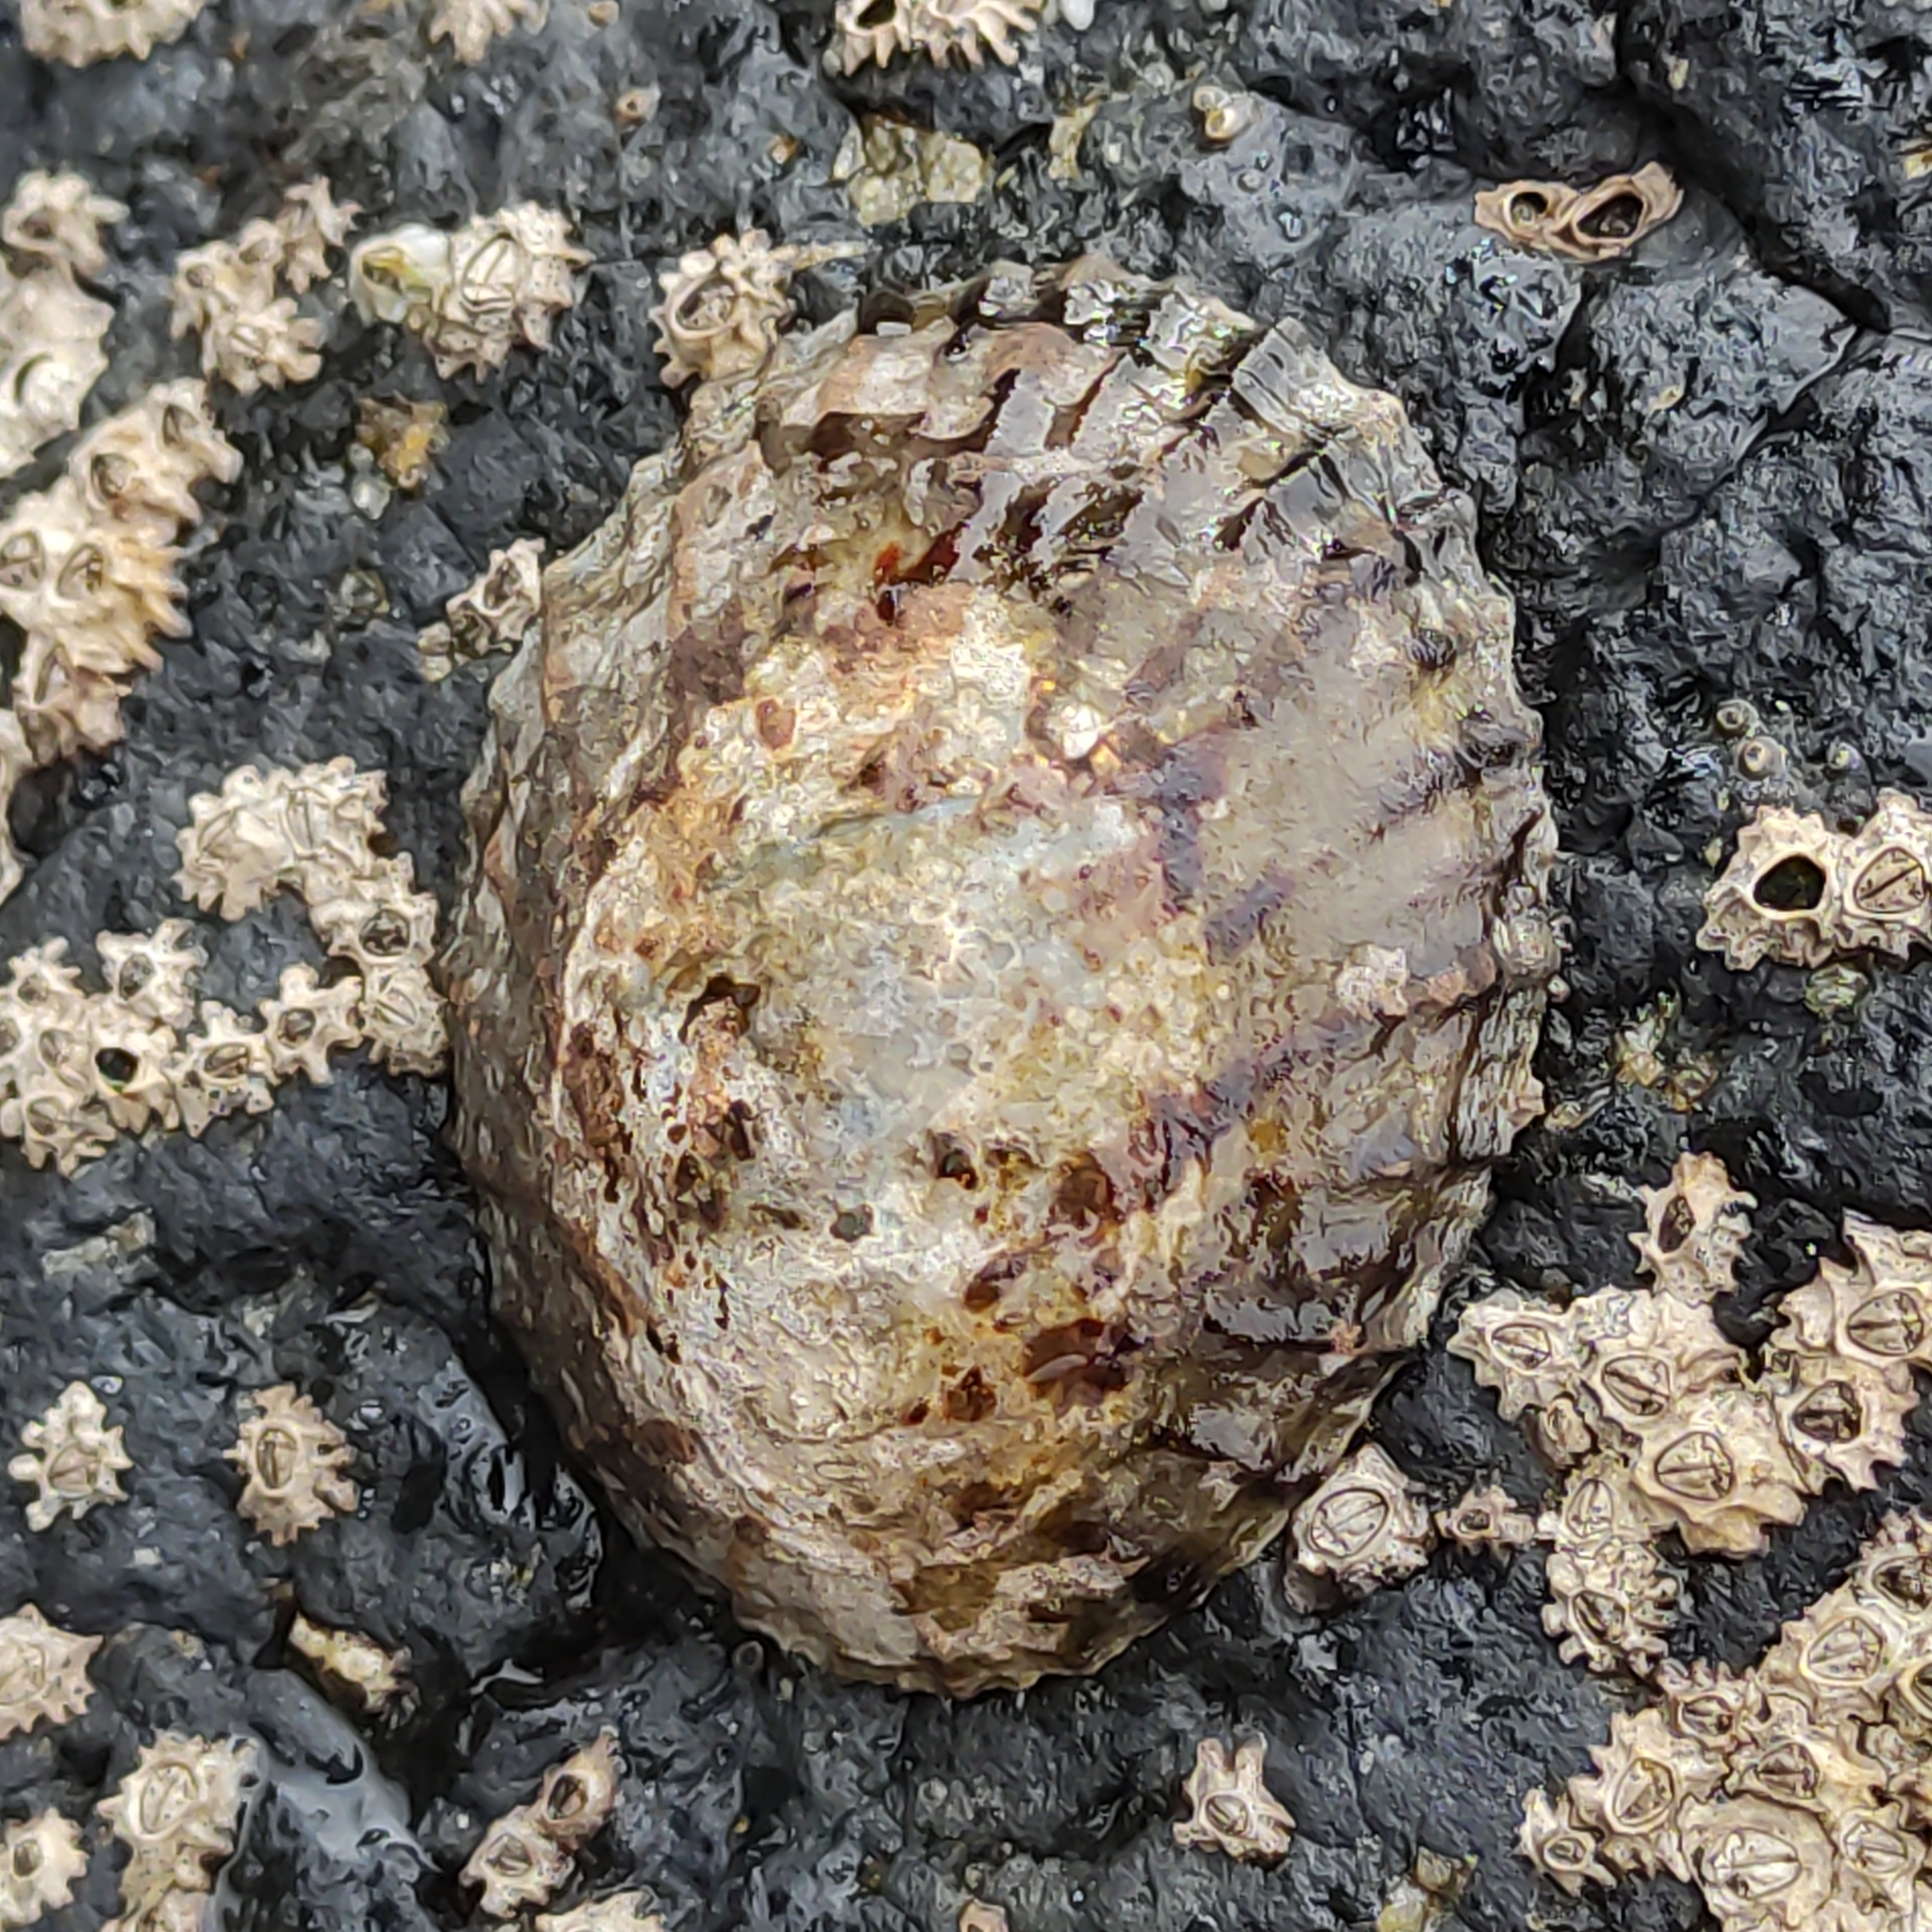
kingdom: Animalia
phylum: Mollusca
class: Gastropoda
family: Nacellidae
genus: Cellana
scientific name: Cellana radians
